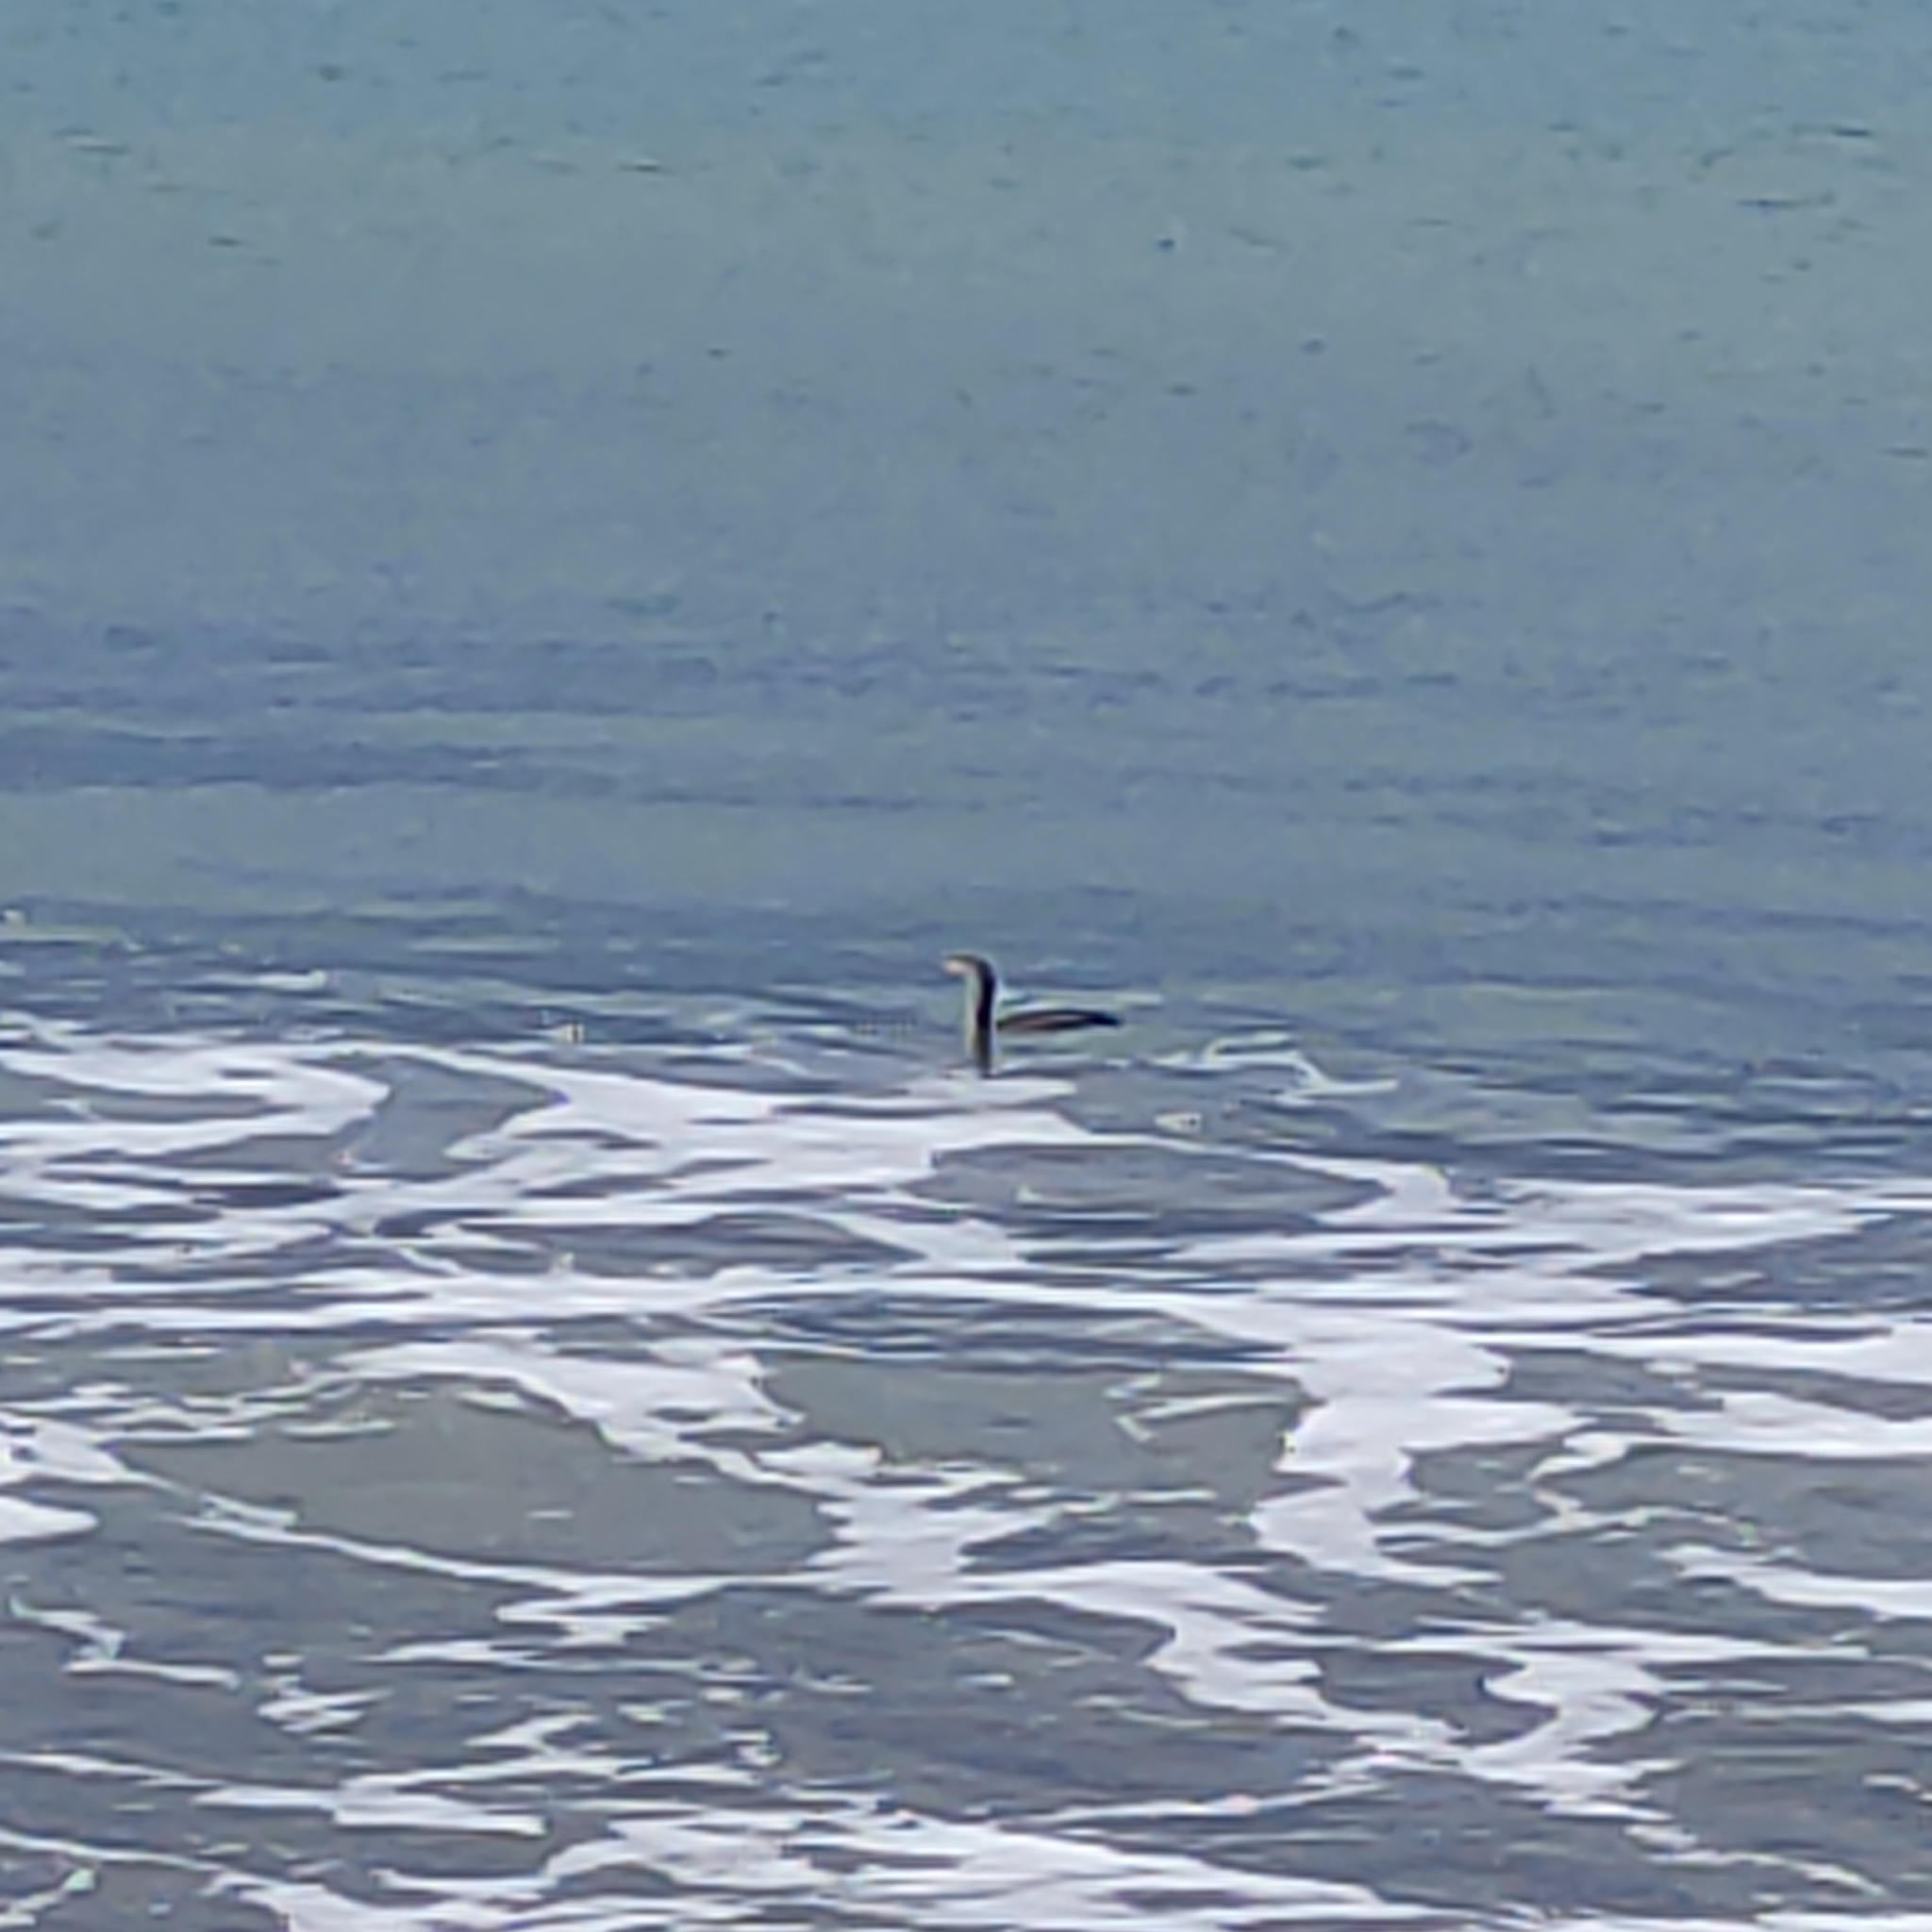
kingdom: Animalia
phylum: Chordata
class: Aves
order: Suliformes
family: Phalacrocoracidae
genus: Phalacrocorax
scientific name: Phalacrocorax punctatus
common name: Spotted shag
